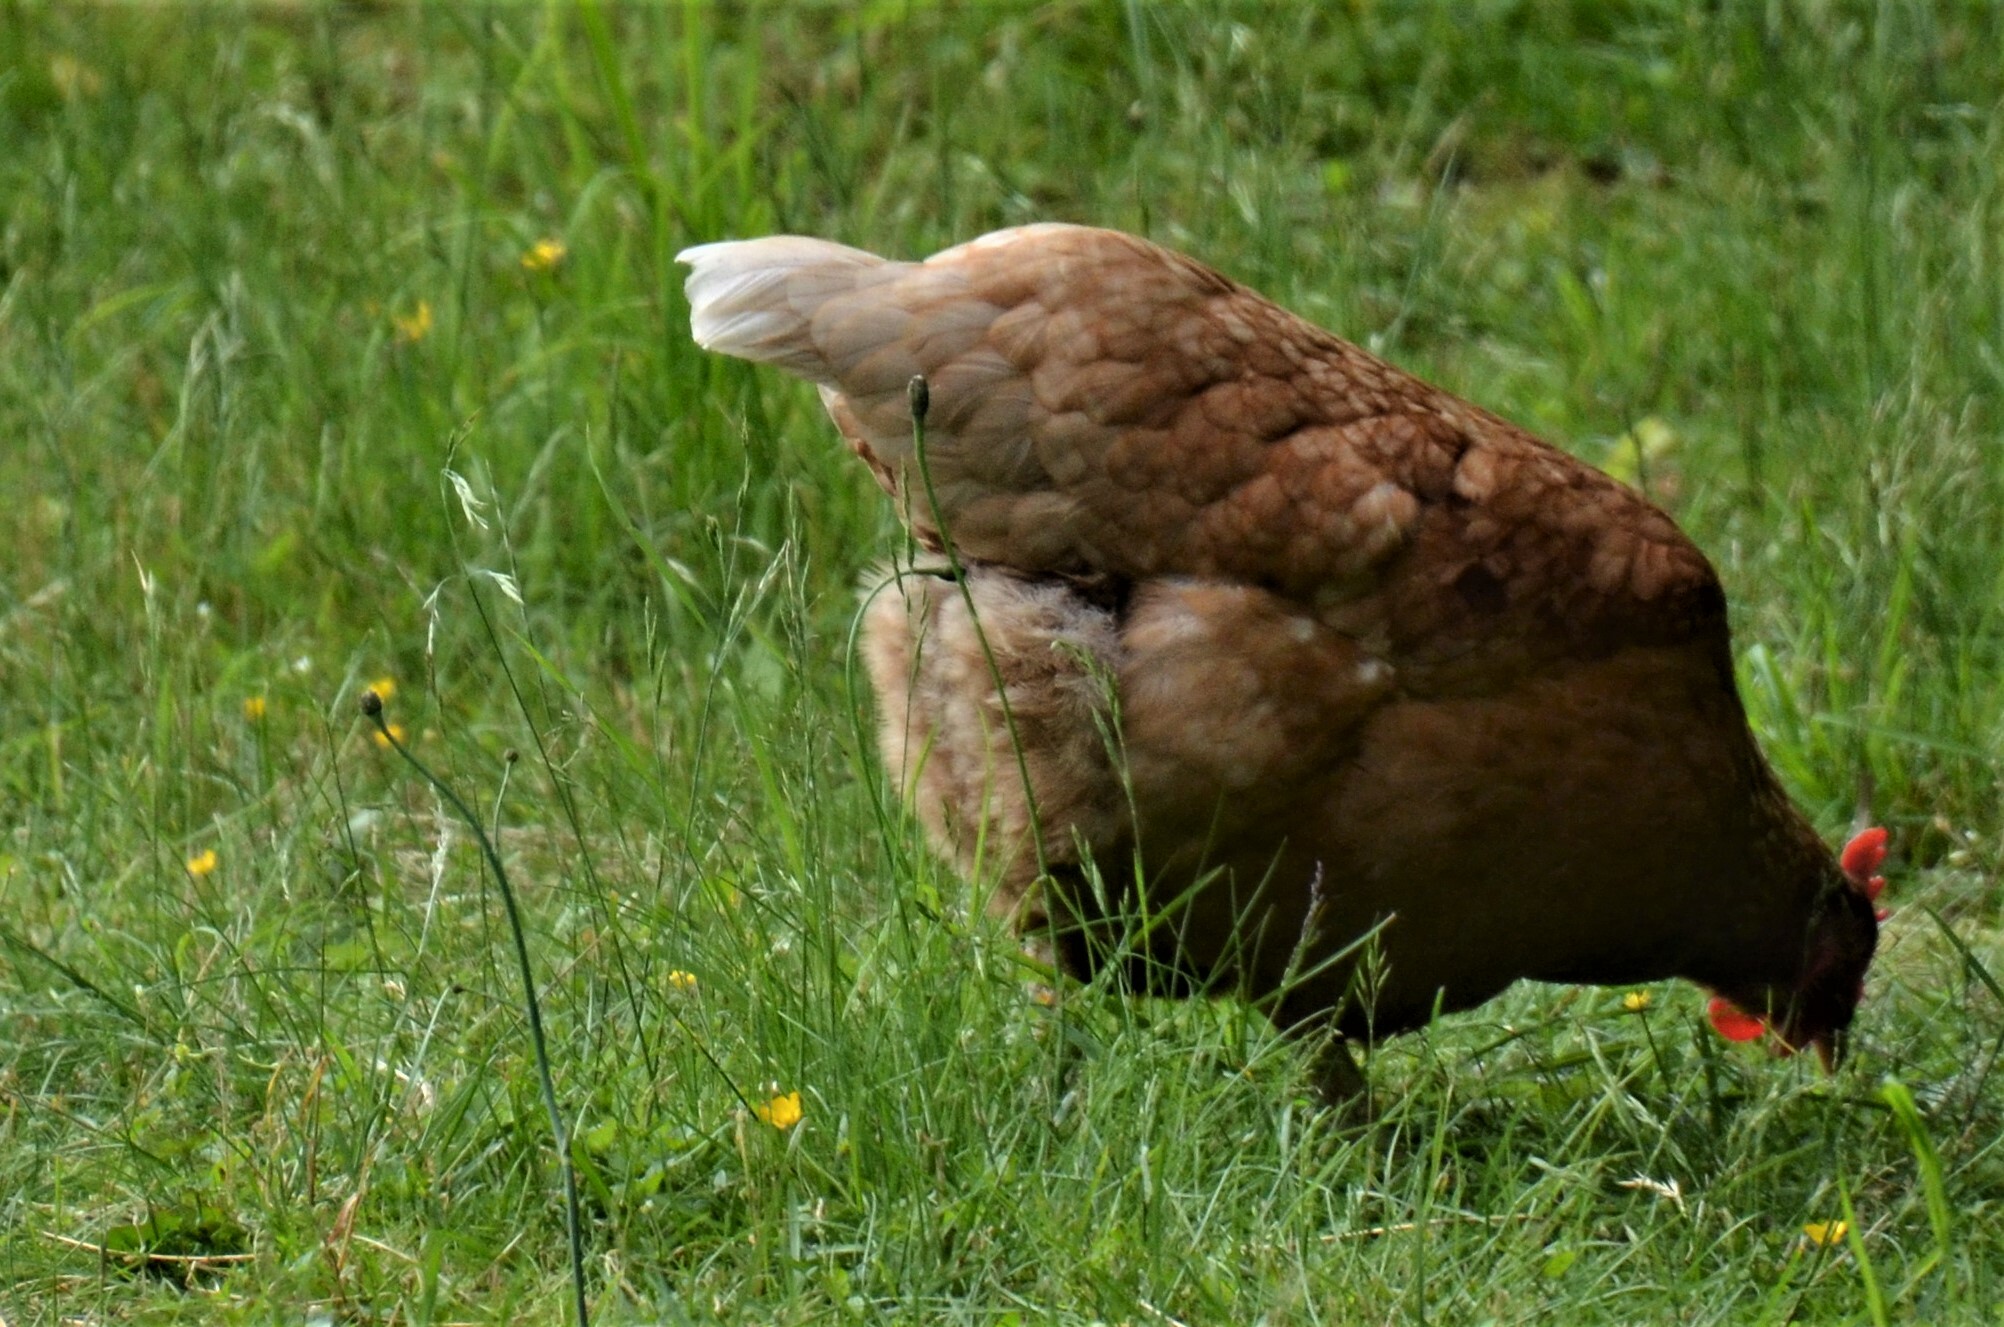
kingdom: Animalia
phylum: Chordata
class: Aves
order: Galliformes
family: Phasianidae
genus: Gallus
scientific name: Gallus gallus
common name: Red junglefowl
